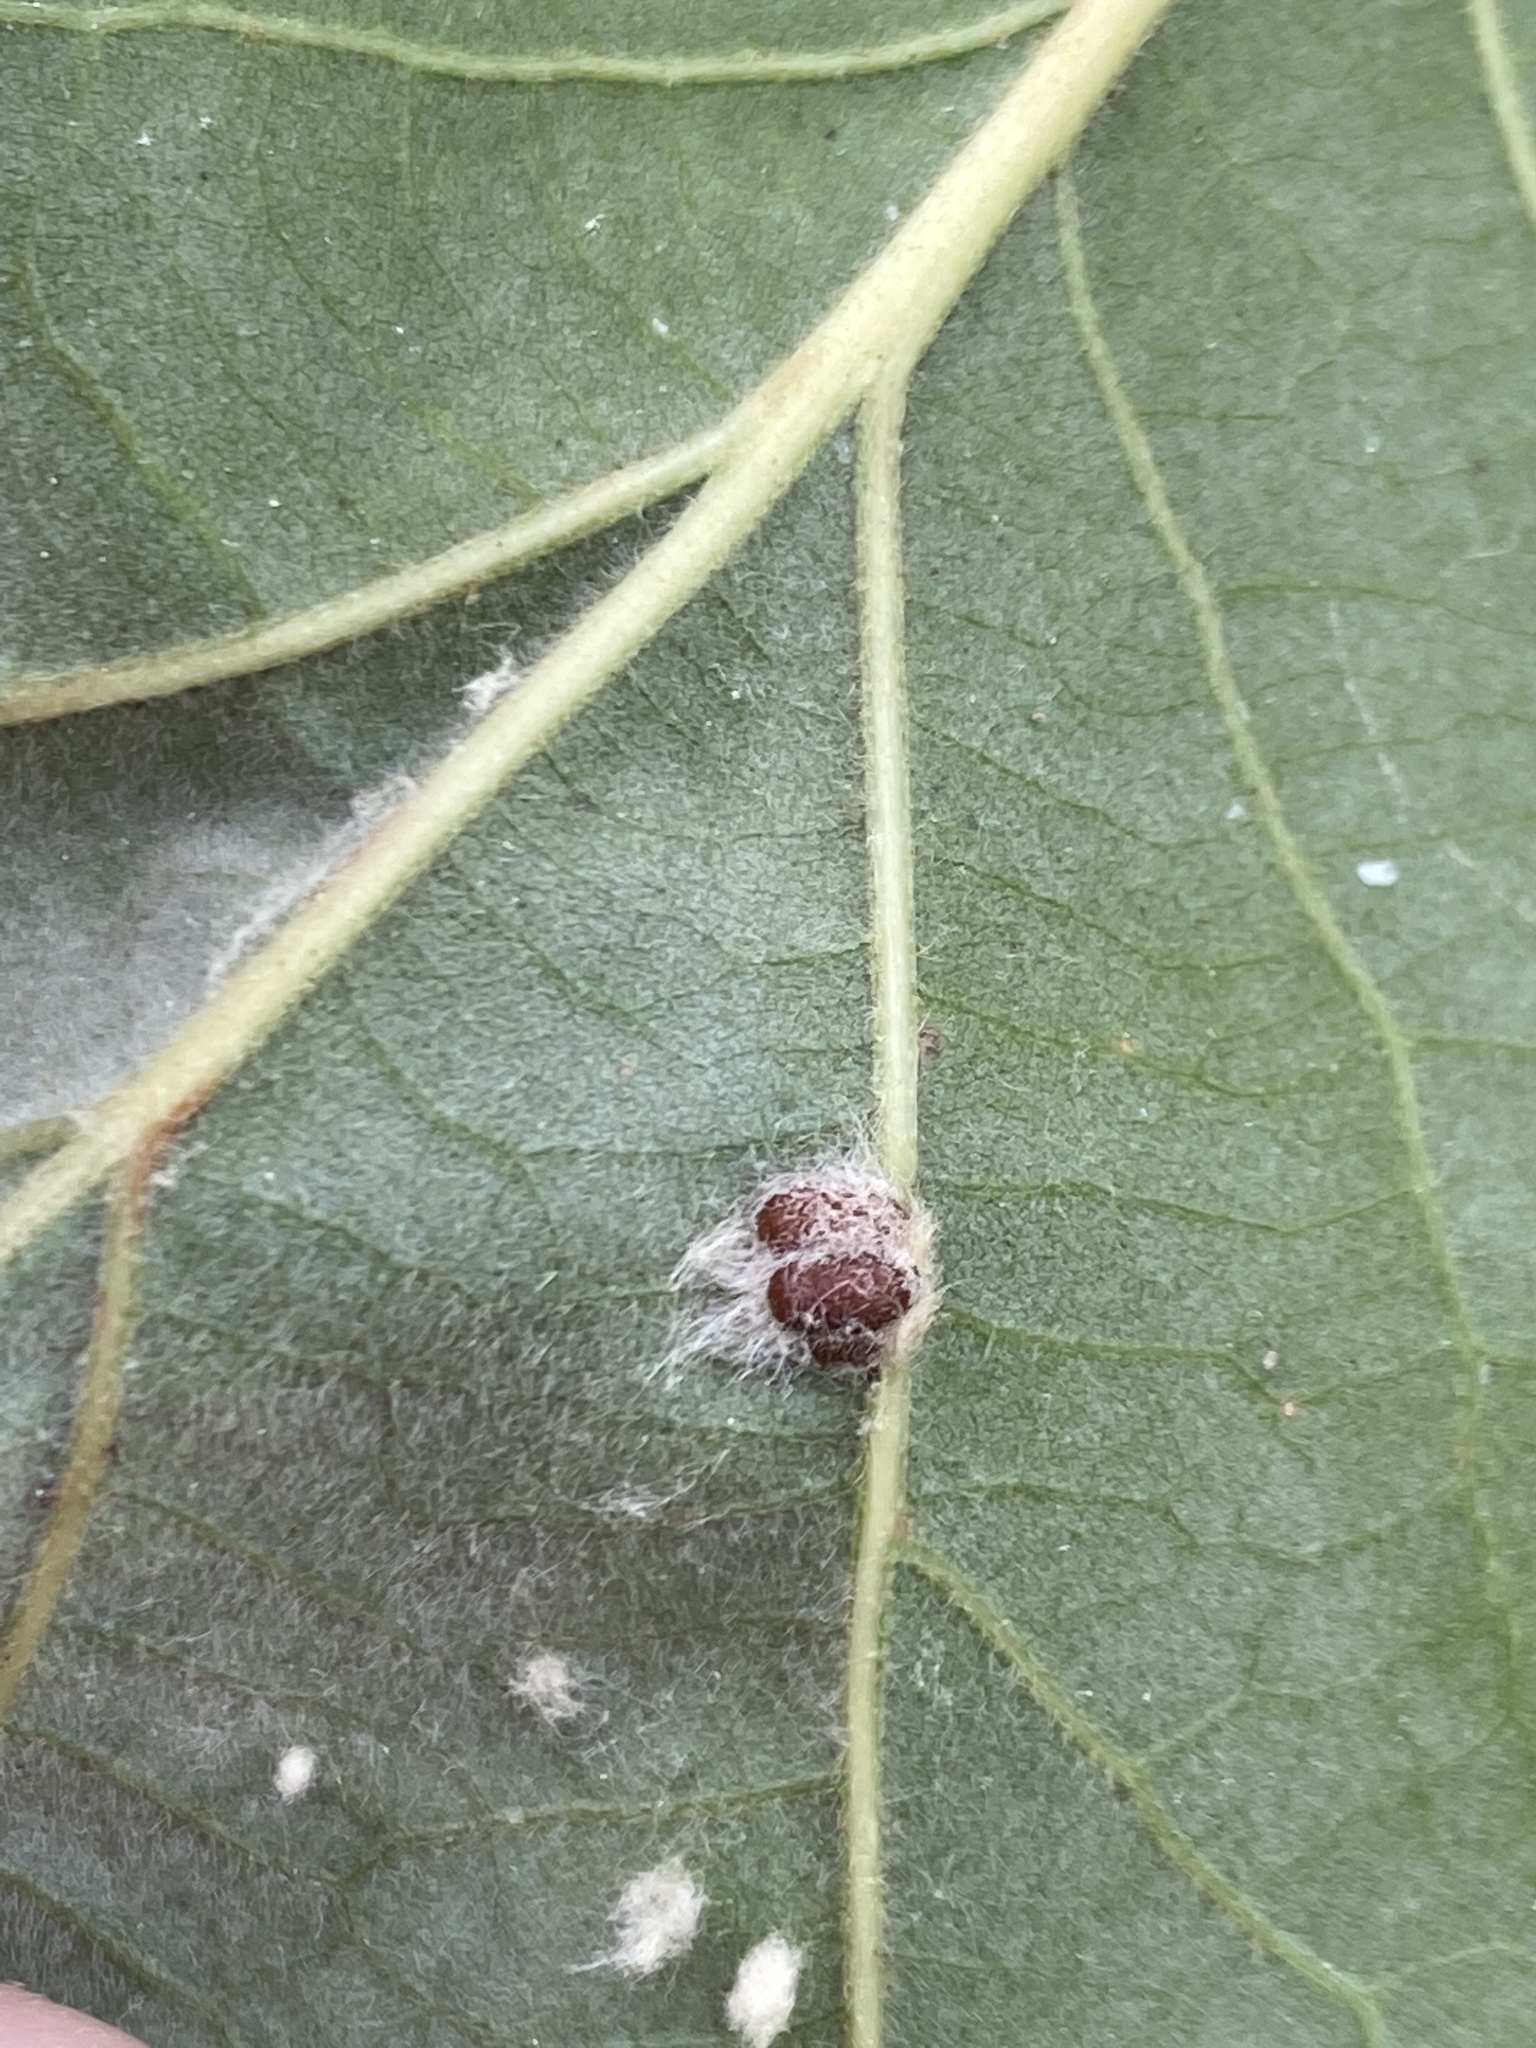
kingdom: Animalia
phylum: Arthropoda
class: Insecta
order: Hymenoptera
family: Cynipidae
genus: Andricus
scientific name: Andricus Druon ignotum
